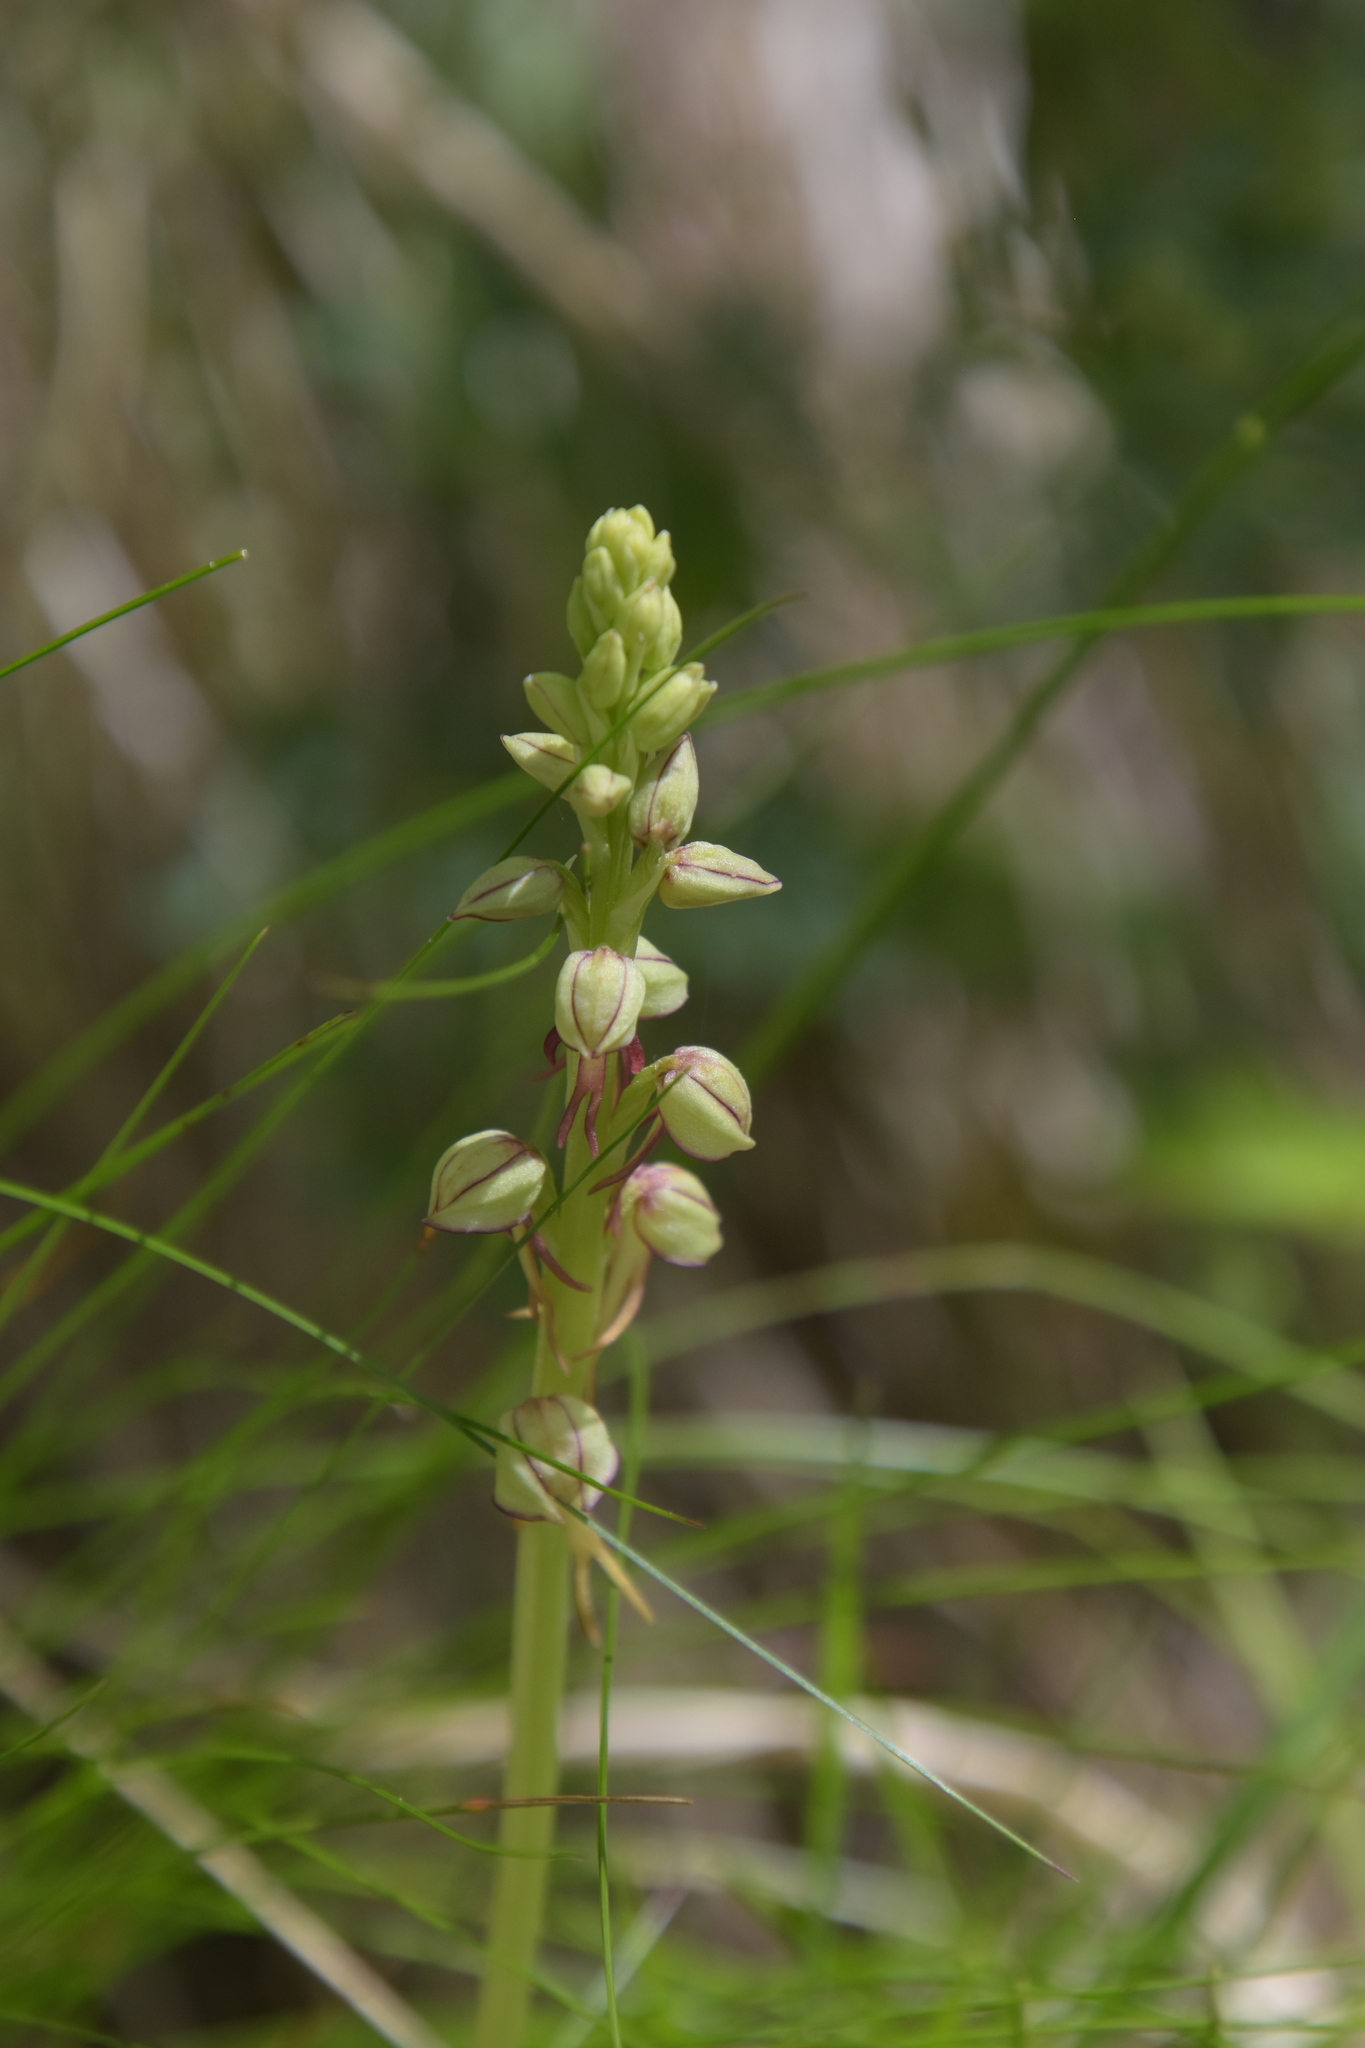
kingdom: Plantae
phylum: Tracheophyta
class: Liliopsida
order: Asparagales
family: Orchidaceae
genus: Orchis
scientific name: Orchis anthropophora
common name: Man orchid
